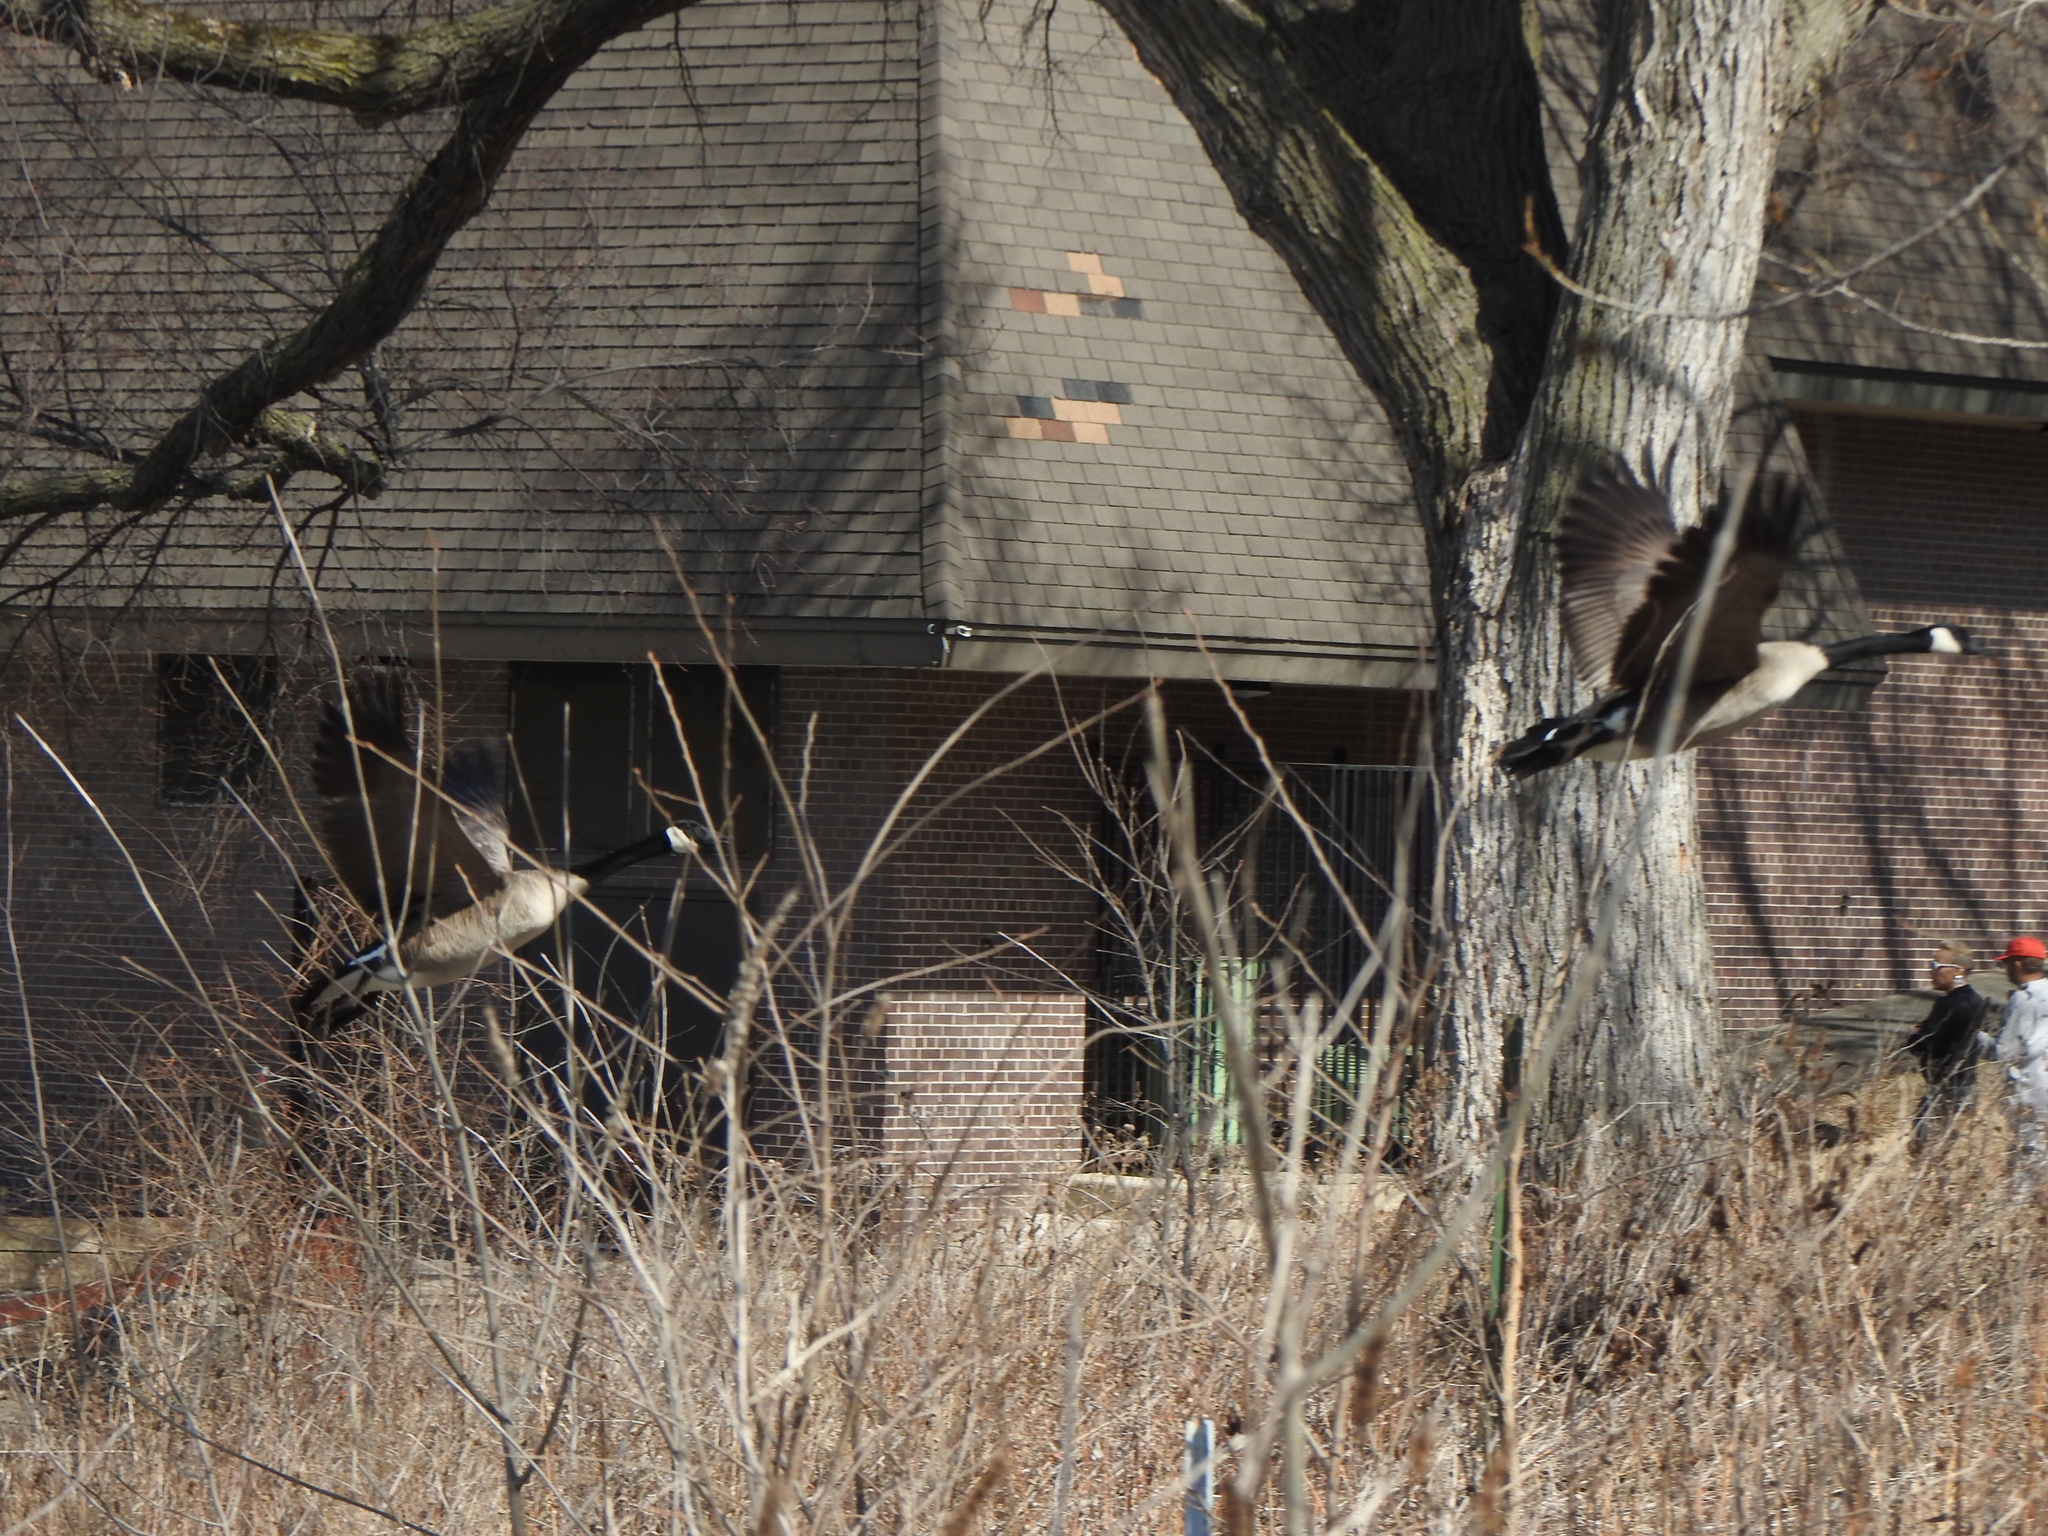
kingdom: Animalia
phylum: Chordata
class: Aves
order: Anseriformes
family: Anatidae
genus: Branta
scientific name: Branta canadensis
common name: Canada goose
